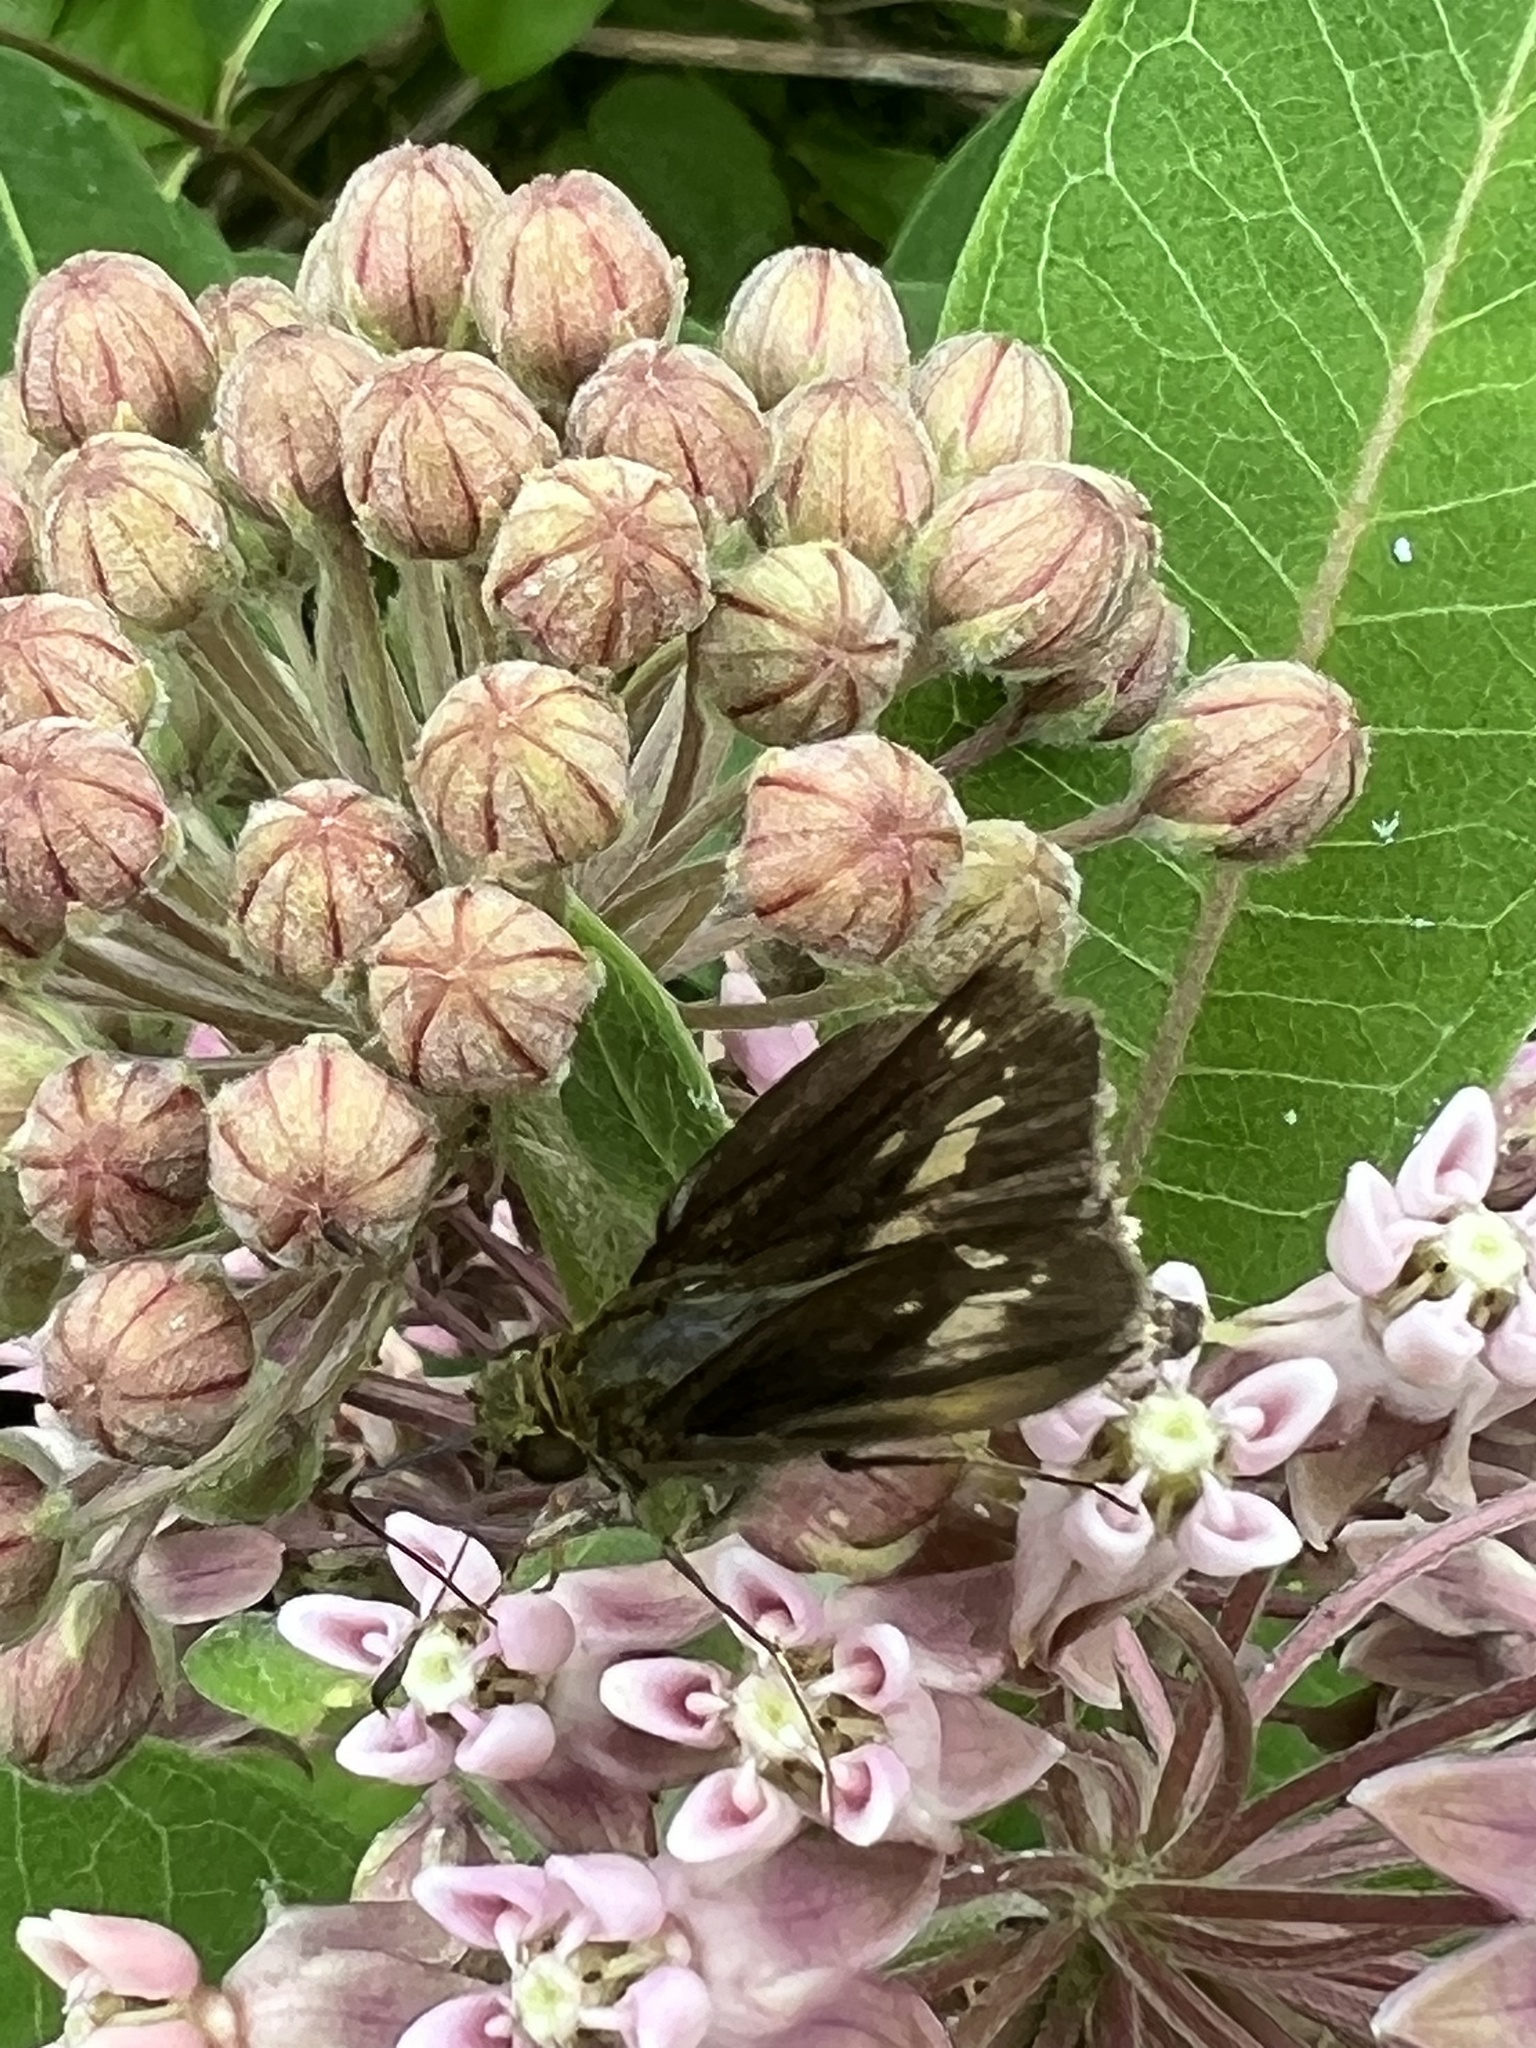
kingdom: Animalia
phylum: Arthropoda
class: Insecta
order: Lepidoptera
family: Hesperiidae
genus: Vernia
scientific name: Vernia verna
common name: Little glassywing
